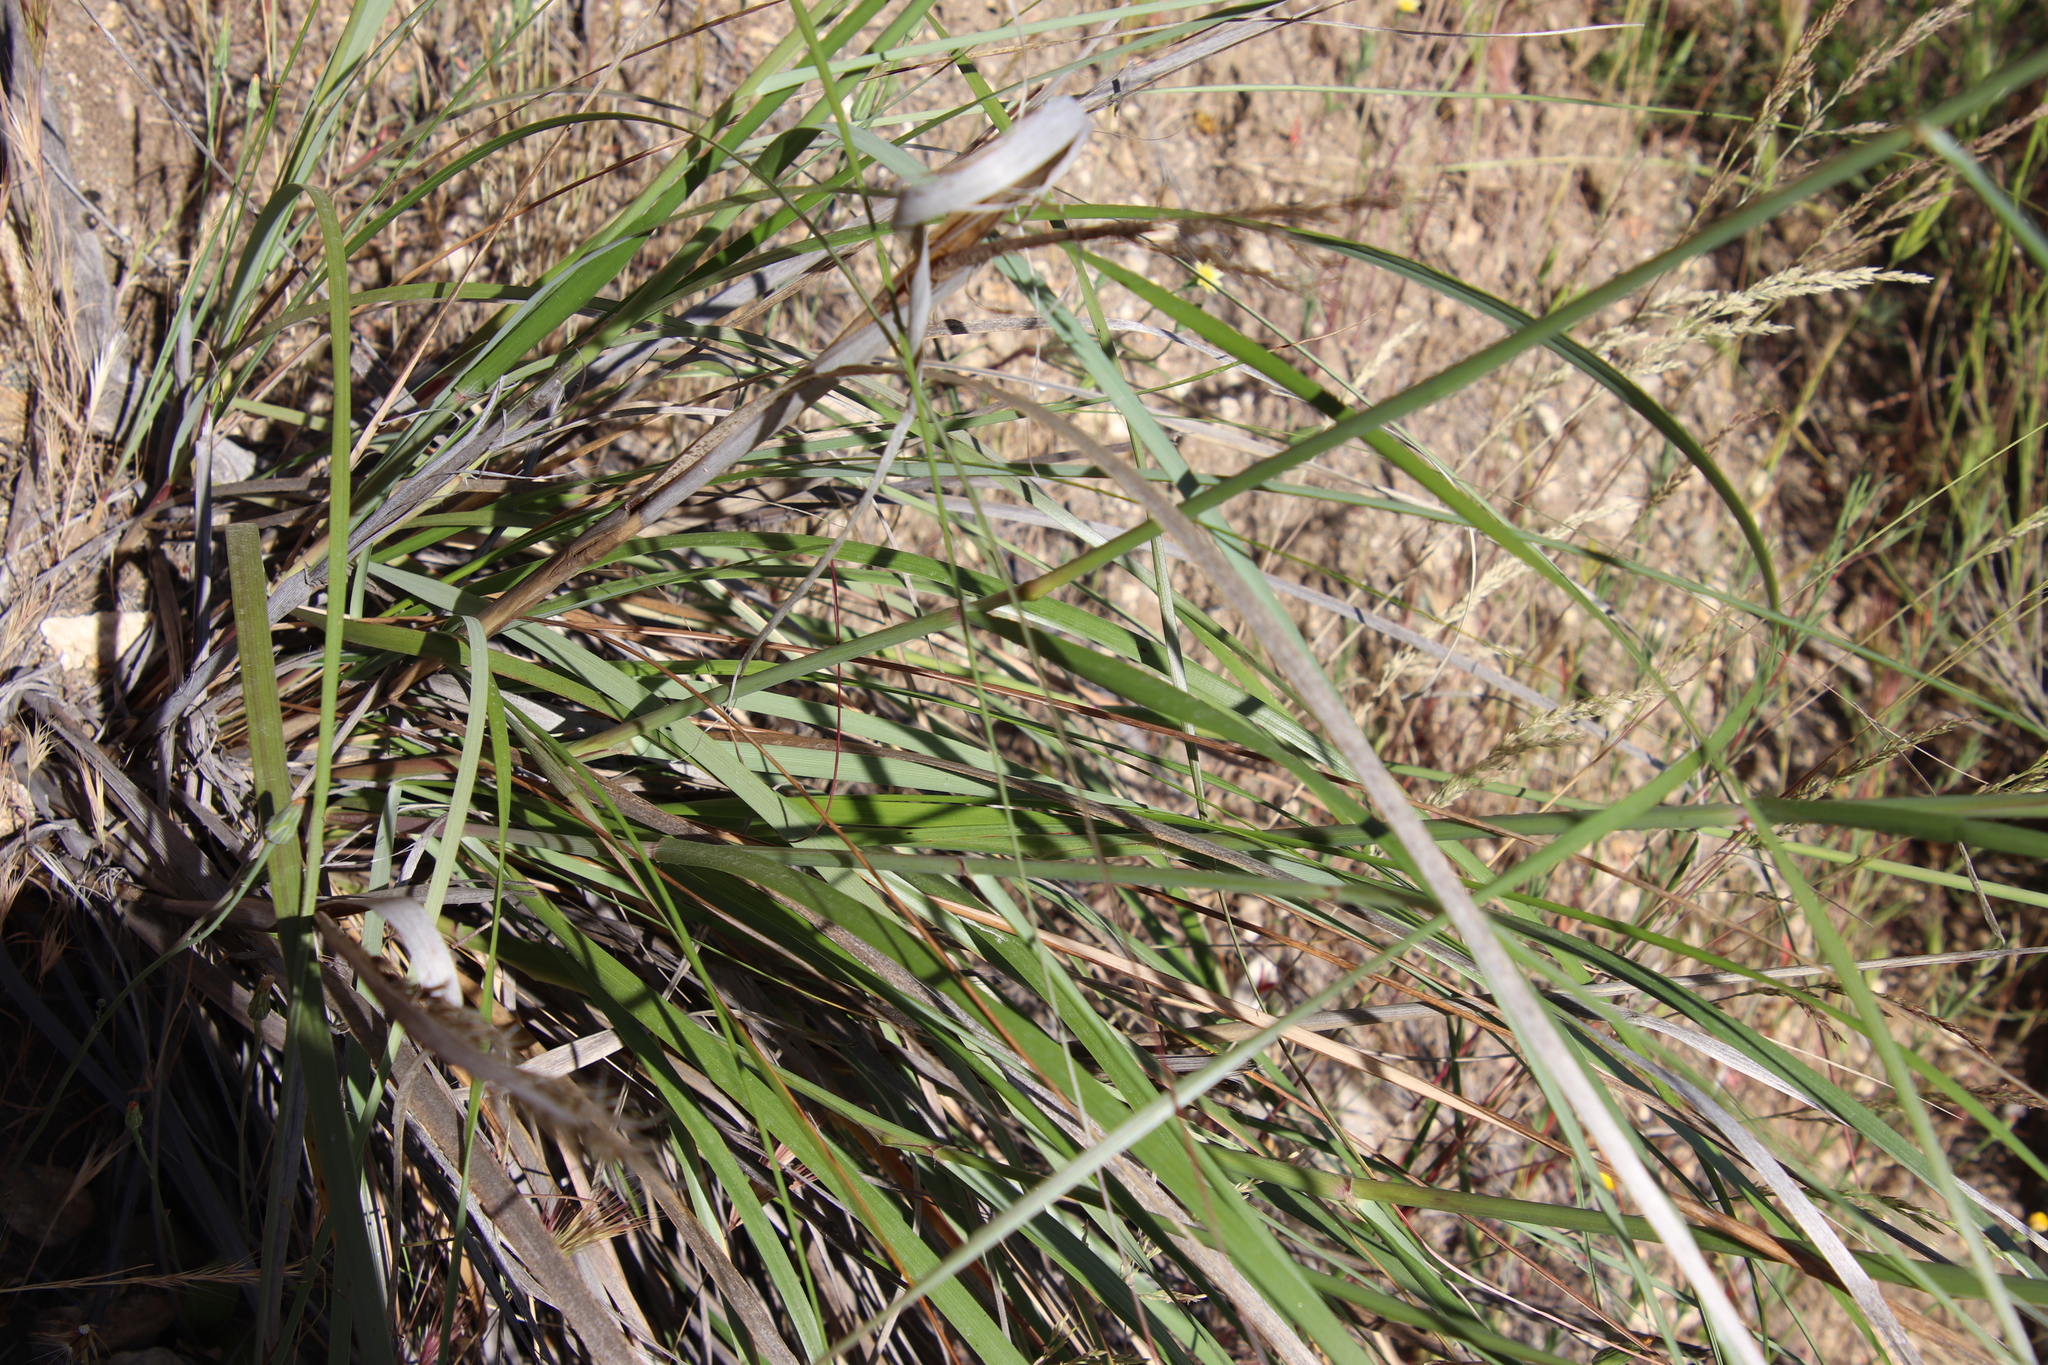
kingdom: Plantae
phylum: Tracheophyta
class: Liliopsida
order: Poales
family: Poaceae
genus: Eriocoma
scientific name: Eriocoma coronata
